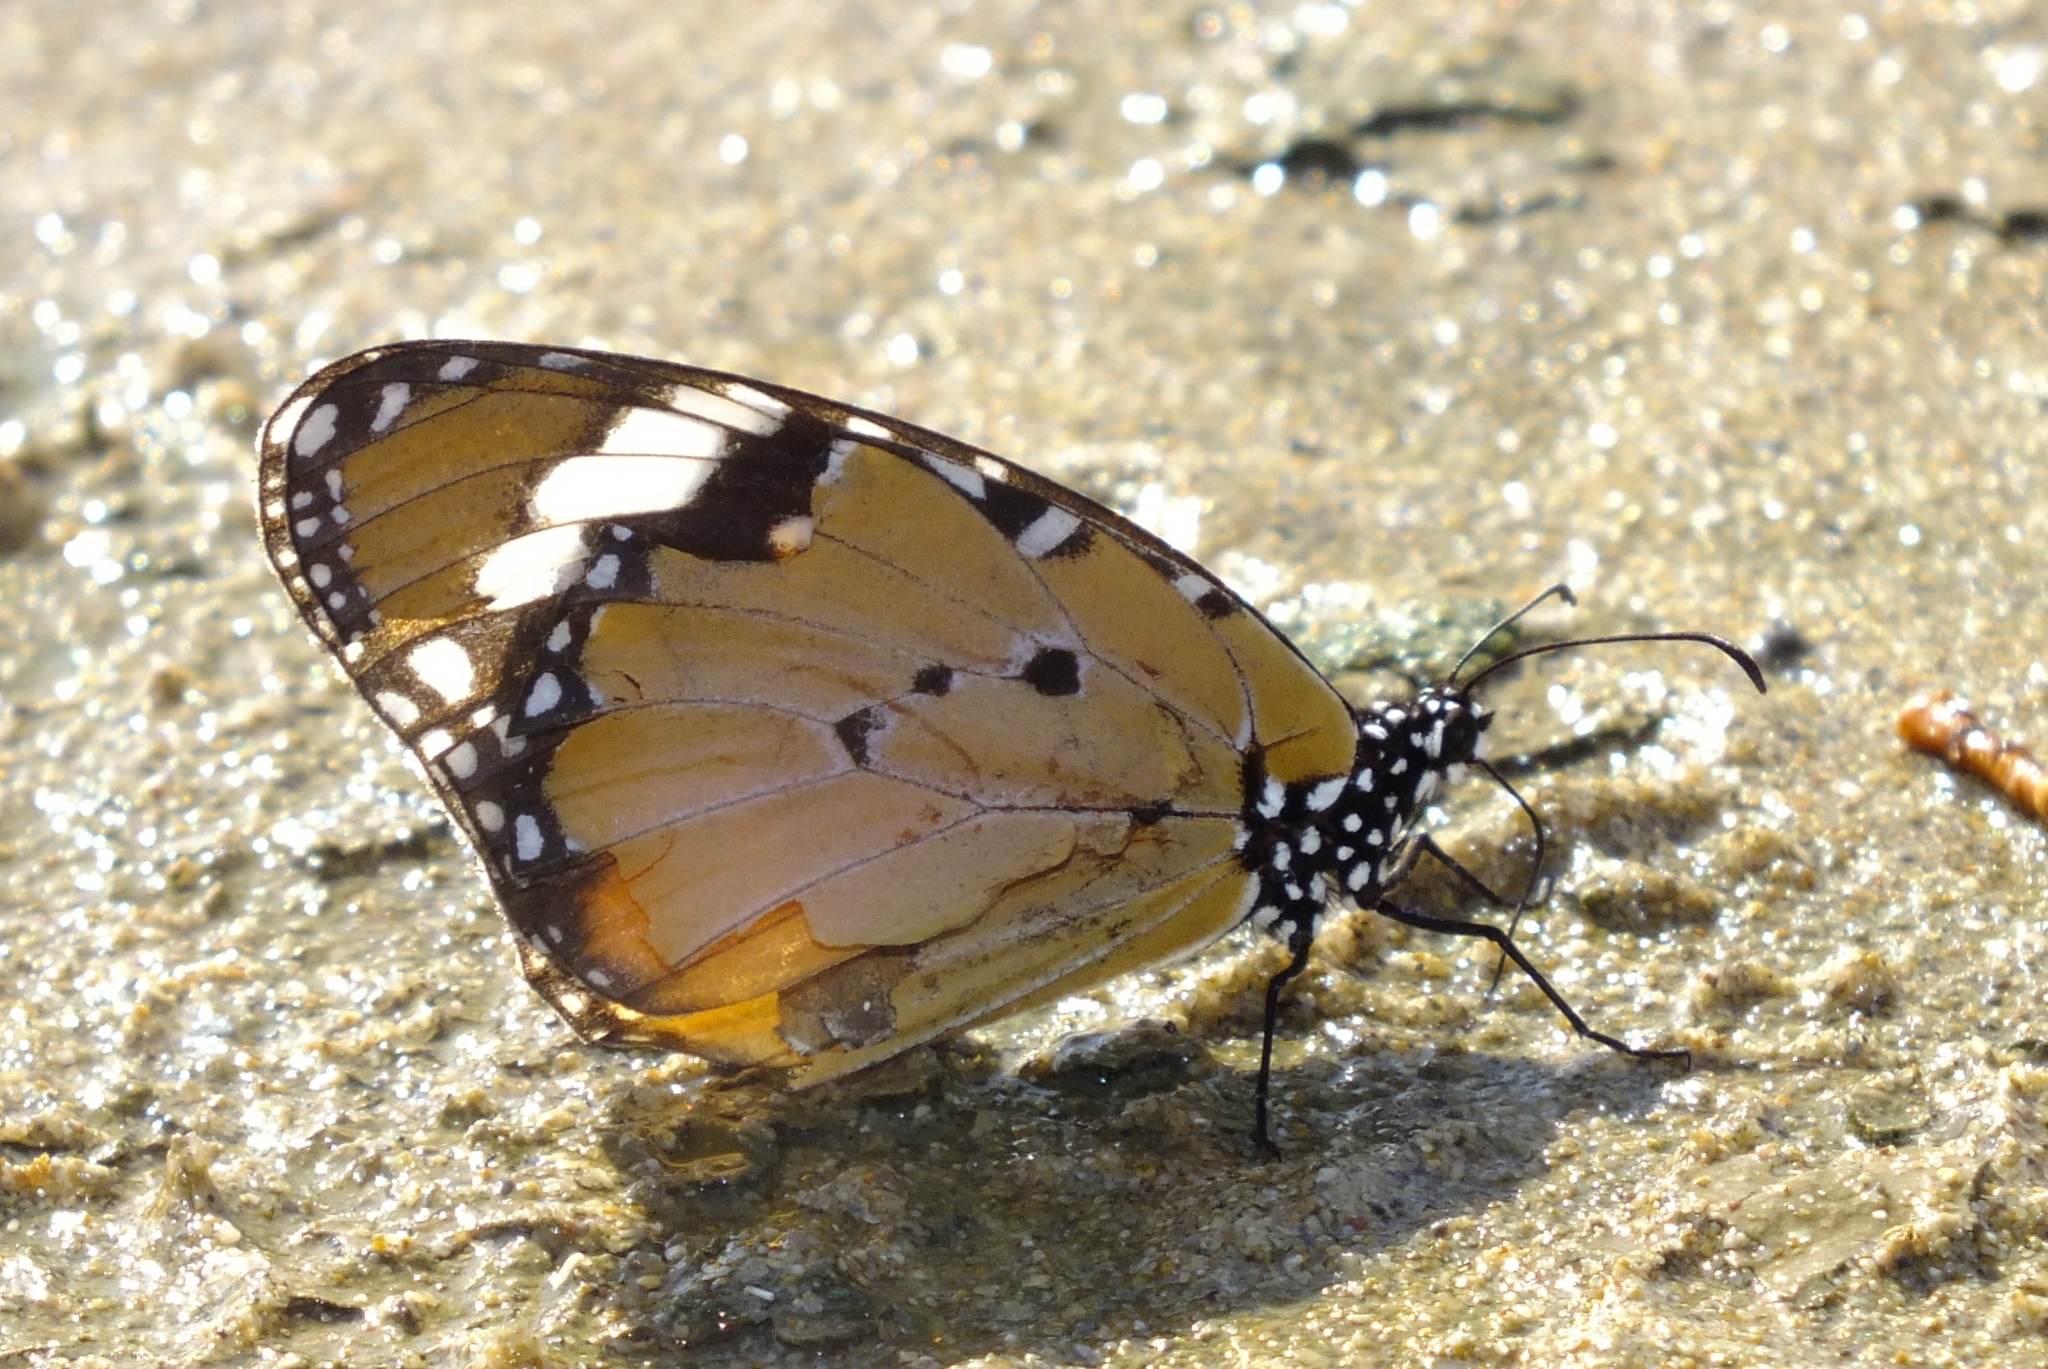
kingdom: Animalia
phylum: Arthropoda
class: Insecta
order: Lepidoptera
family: Nymphalidae
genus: Danaus
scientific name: Danaus chrysippus
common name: Plain tiger
